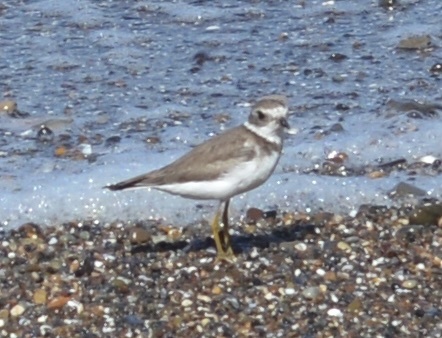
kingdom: Animalia
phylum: Chordata
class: Aves
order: Charadriiformes
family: Charadriidae
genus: Charadrius
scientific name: Charadrius semipalmatus
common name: Semipalmated plover
